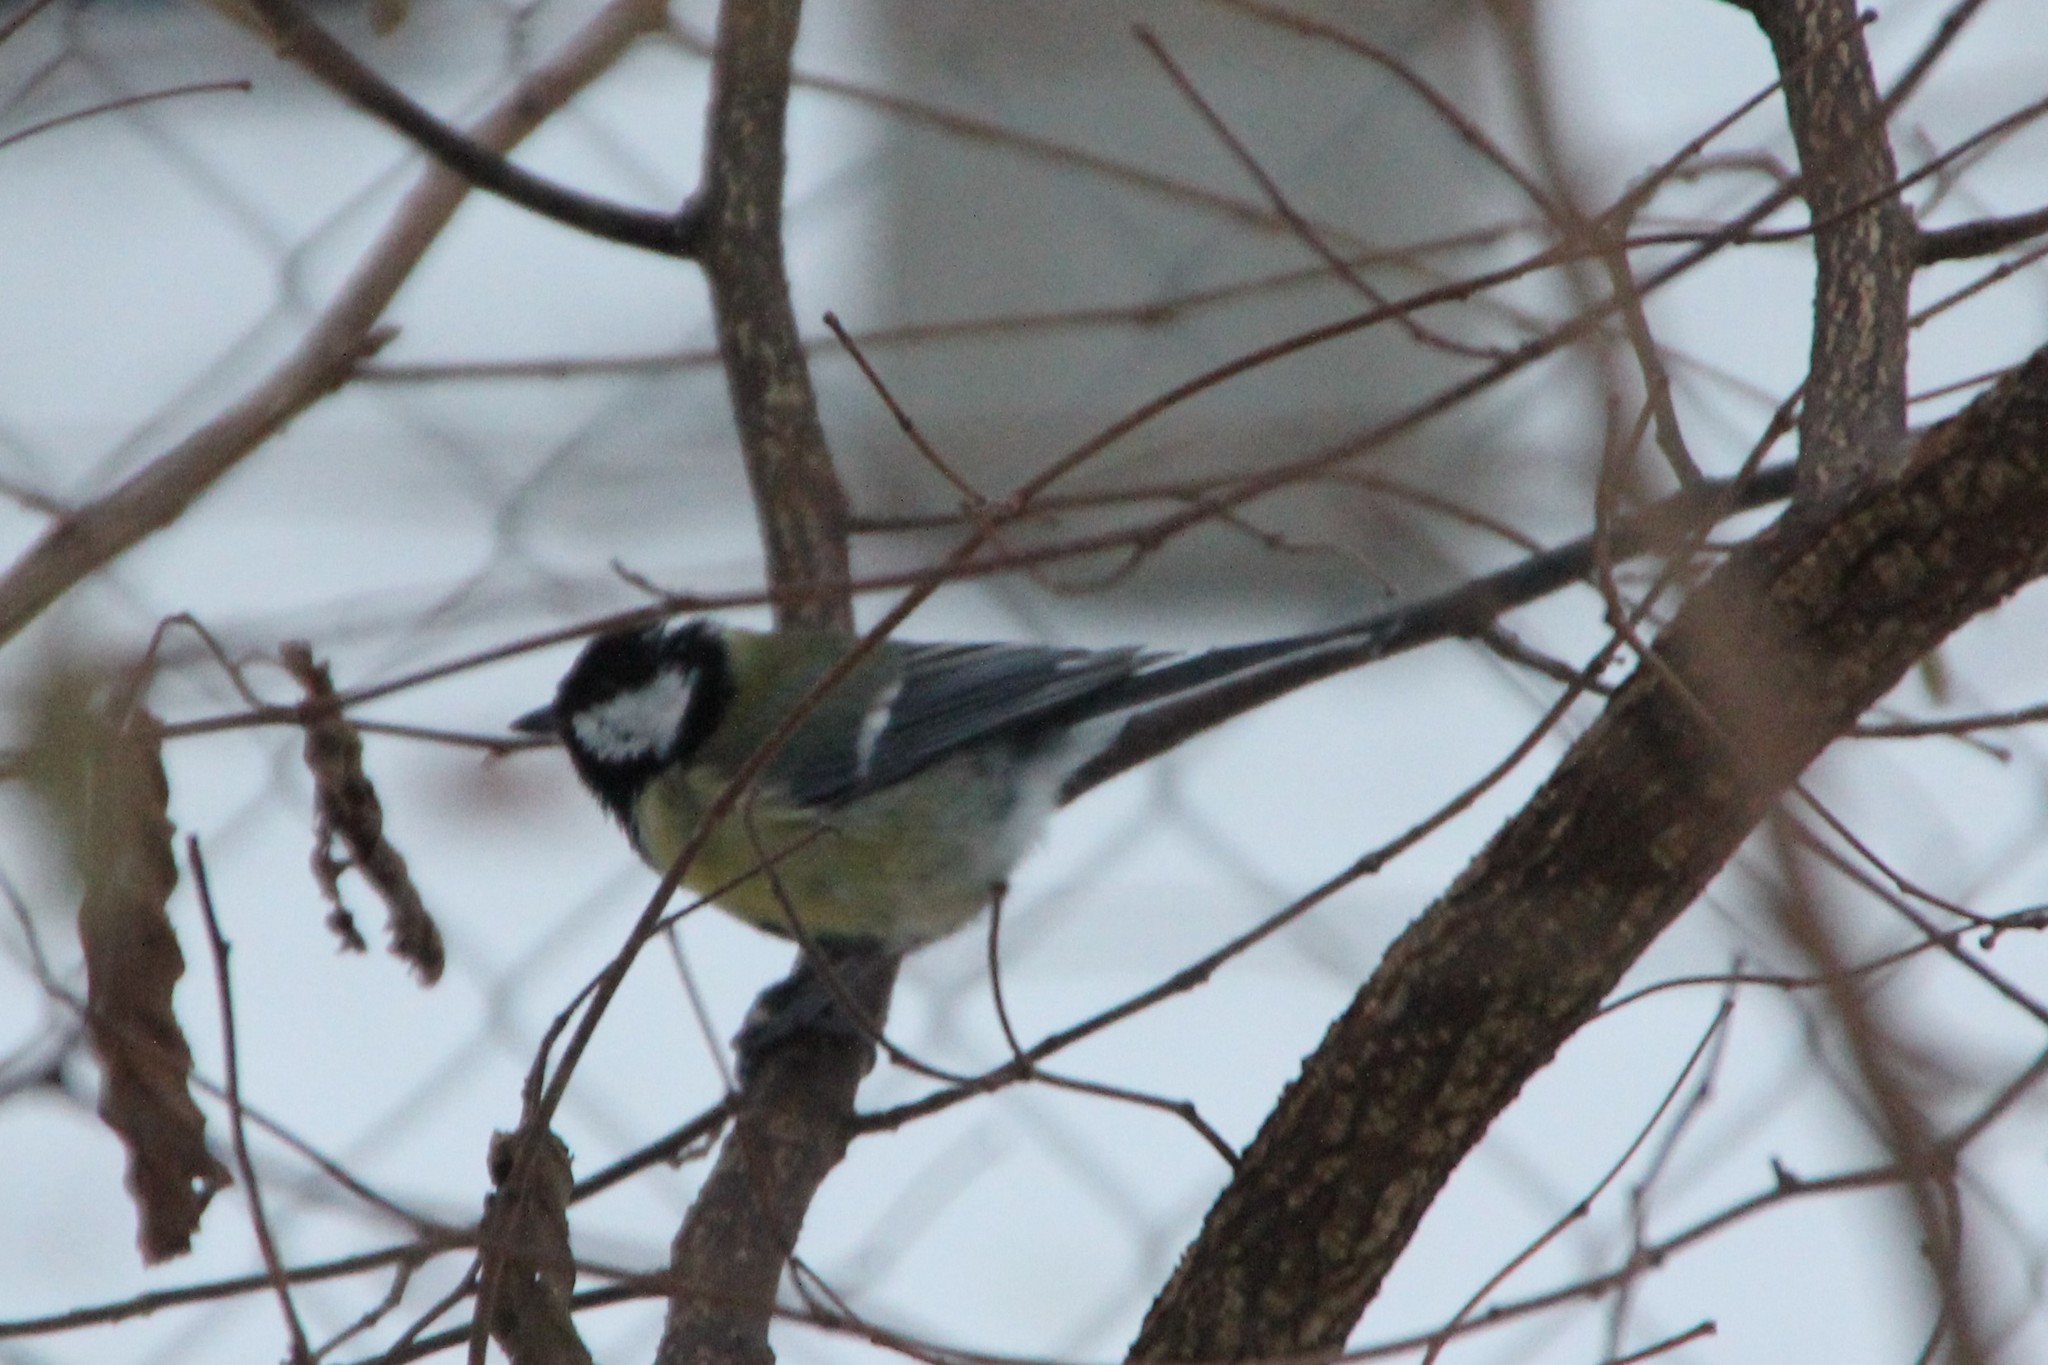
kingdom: Animalia
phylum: Chordata
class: Aves
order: Passeriformes
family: Paridae
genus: Parus
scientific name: Parus major
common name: Great tit
